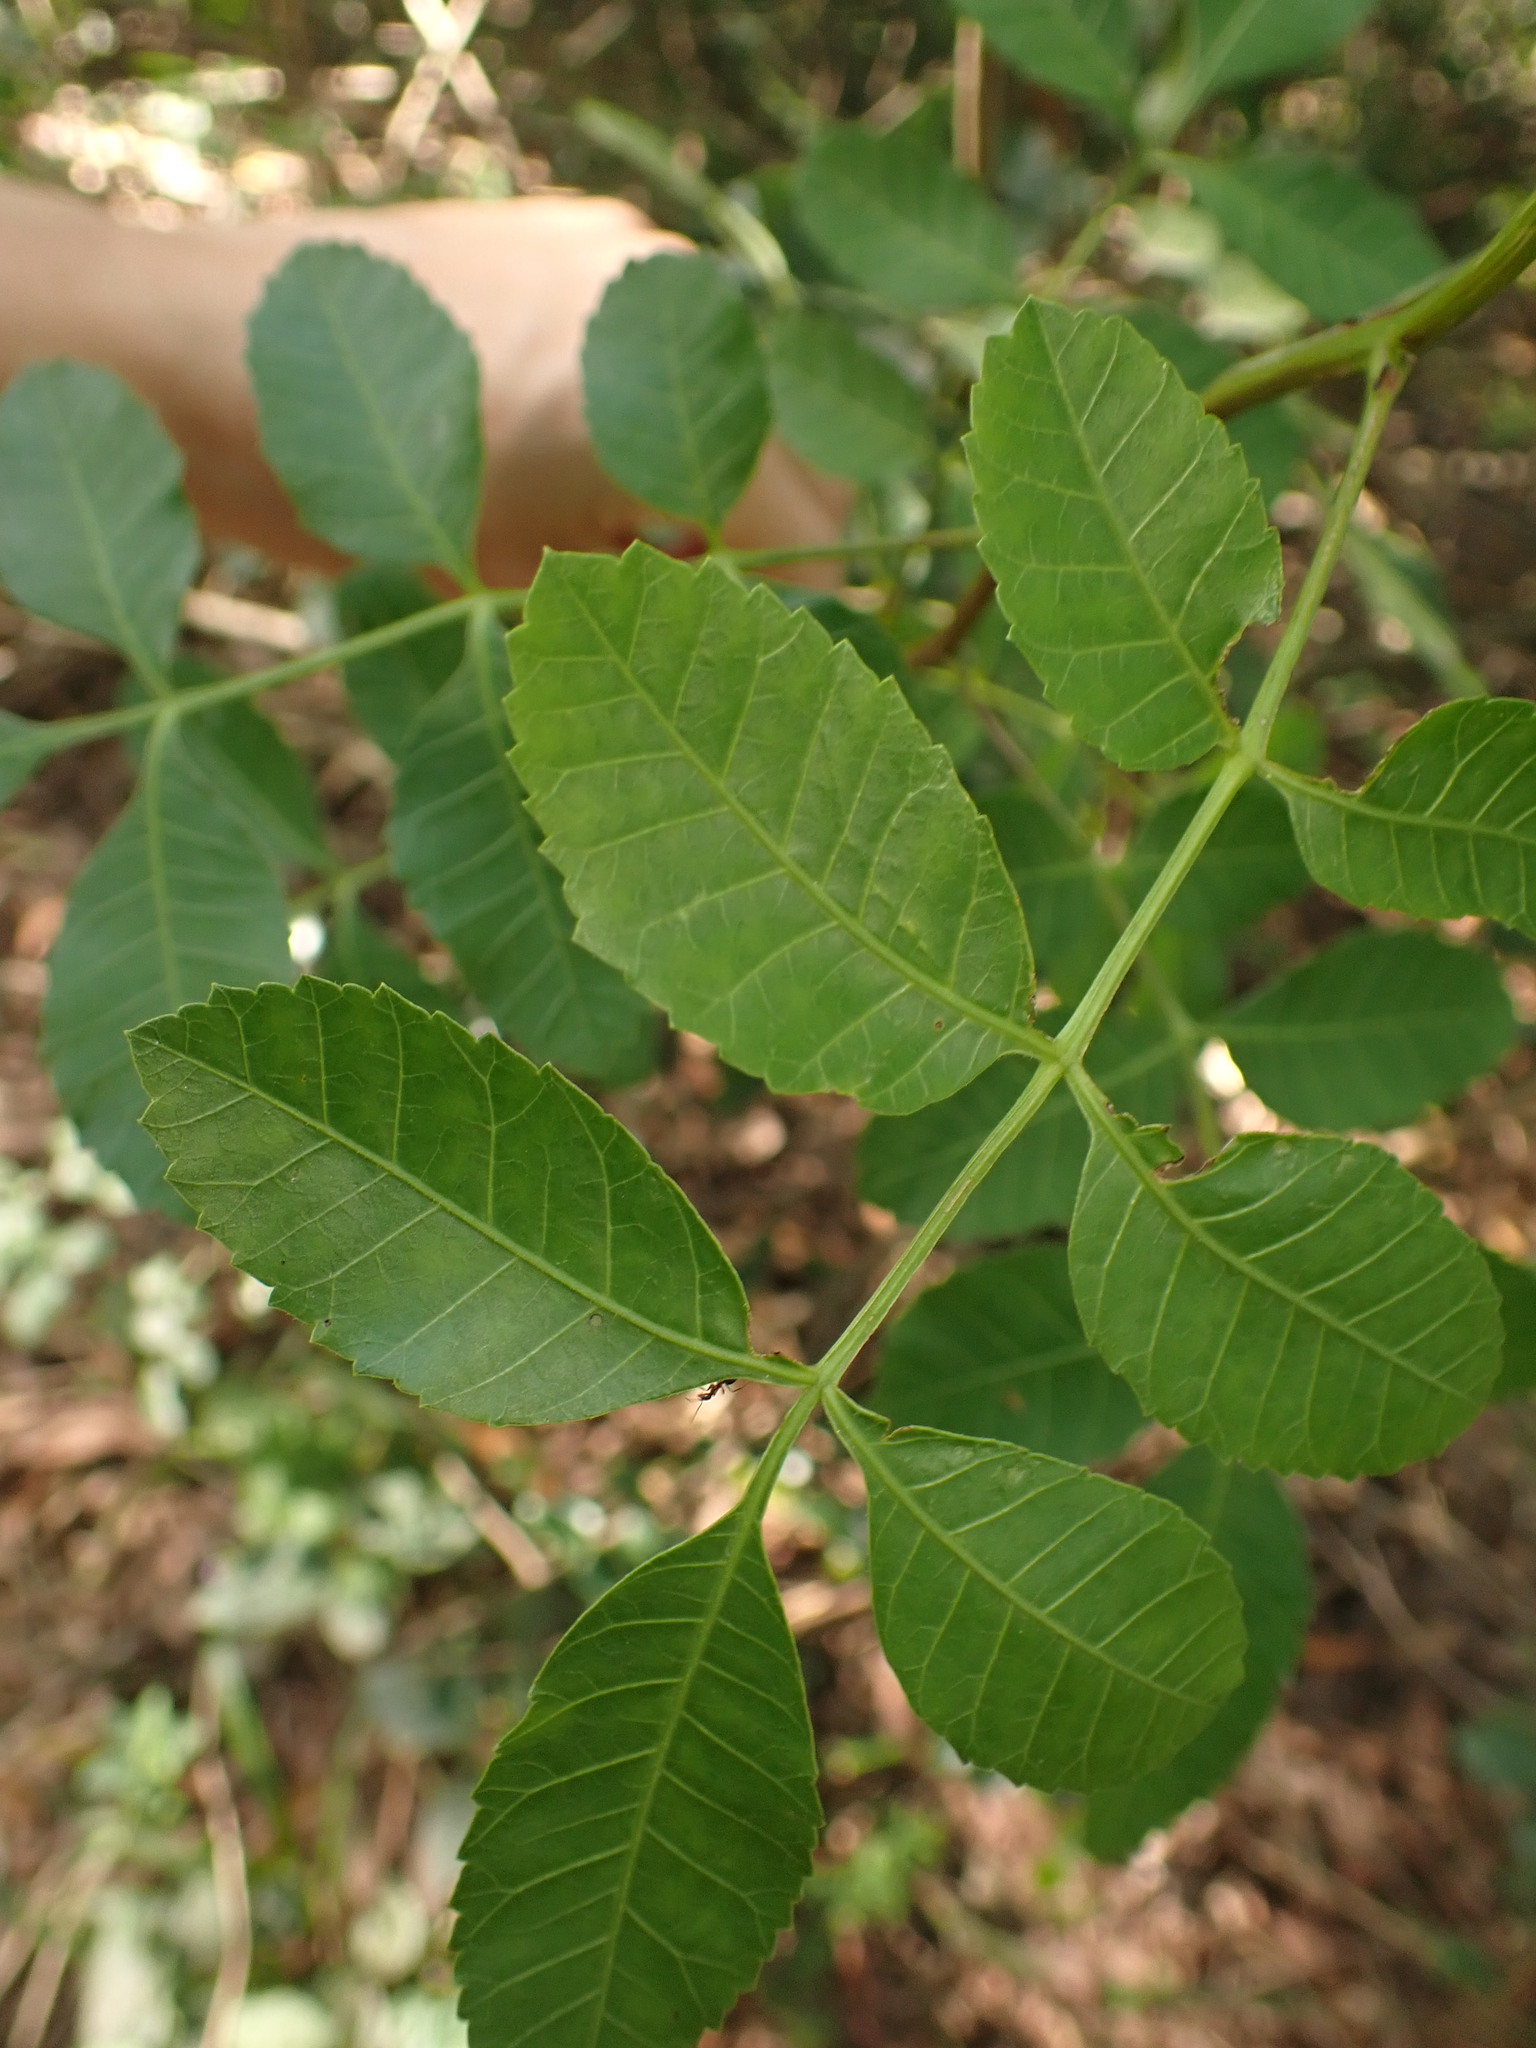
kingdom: Plantae
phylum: Tracheophyta
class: Magnoliopsida
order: Sapindales
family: Anacardiaceae
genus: Schinus
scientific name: Schinus terebinthifolia
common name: Brazilian peppertree
